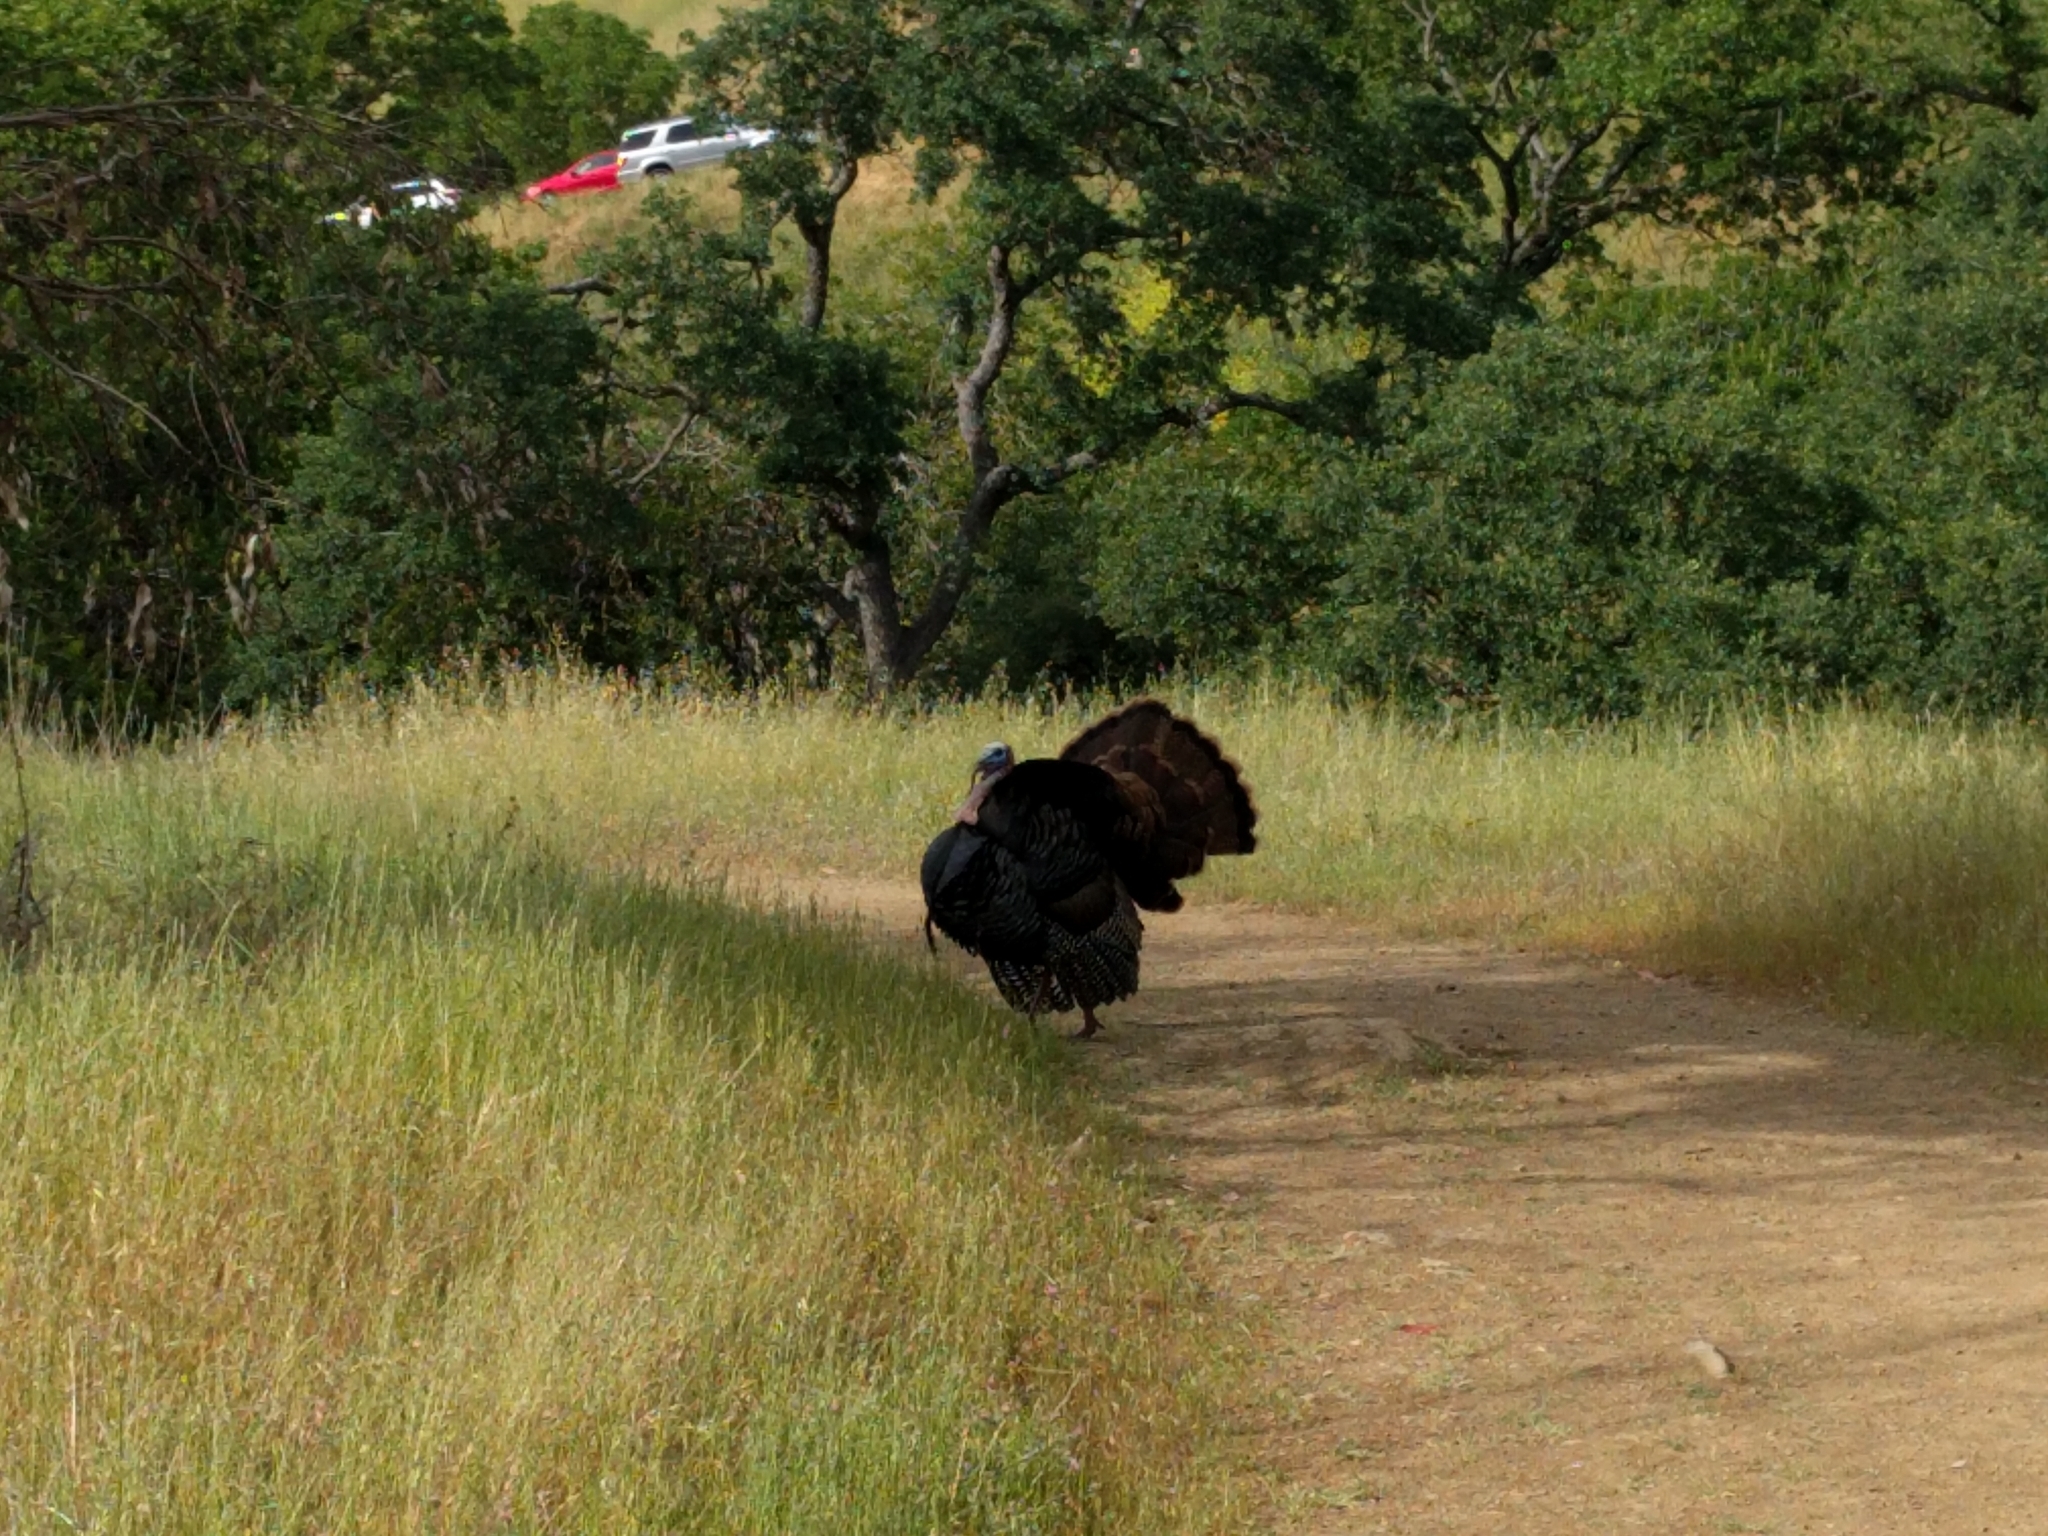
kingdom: Animalia
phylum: Chordata
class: Aves
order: Galliformes
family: Phasianidae
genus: Meleagris
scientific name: Meleagris gallopavo
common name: Wild turkey
